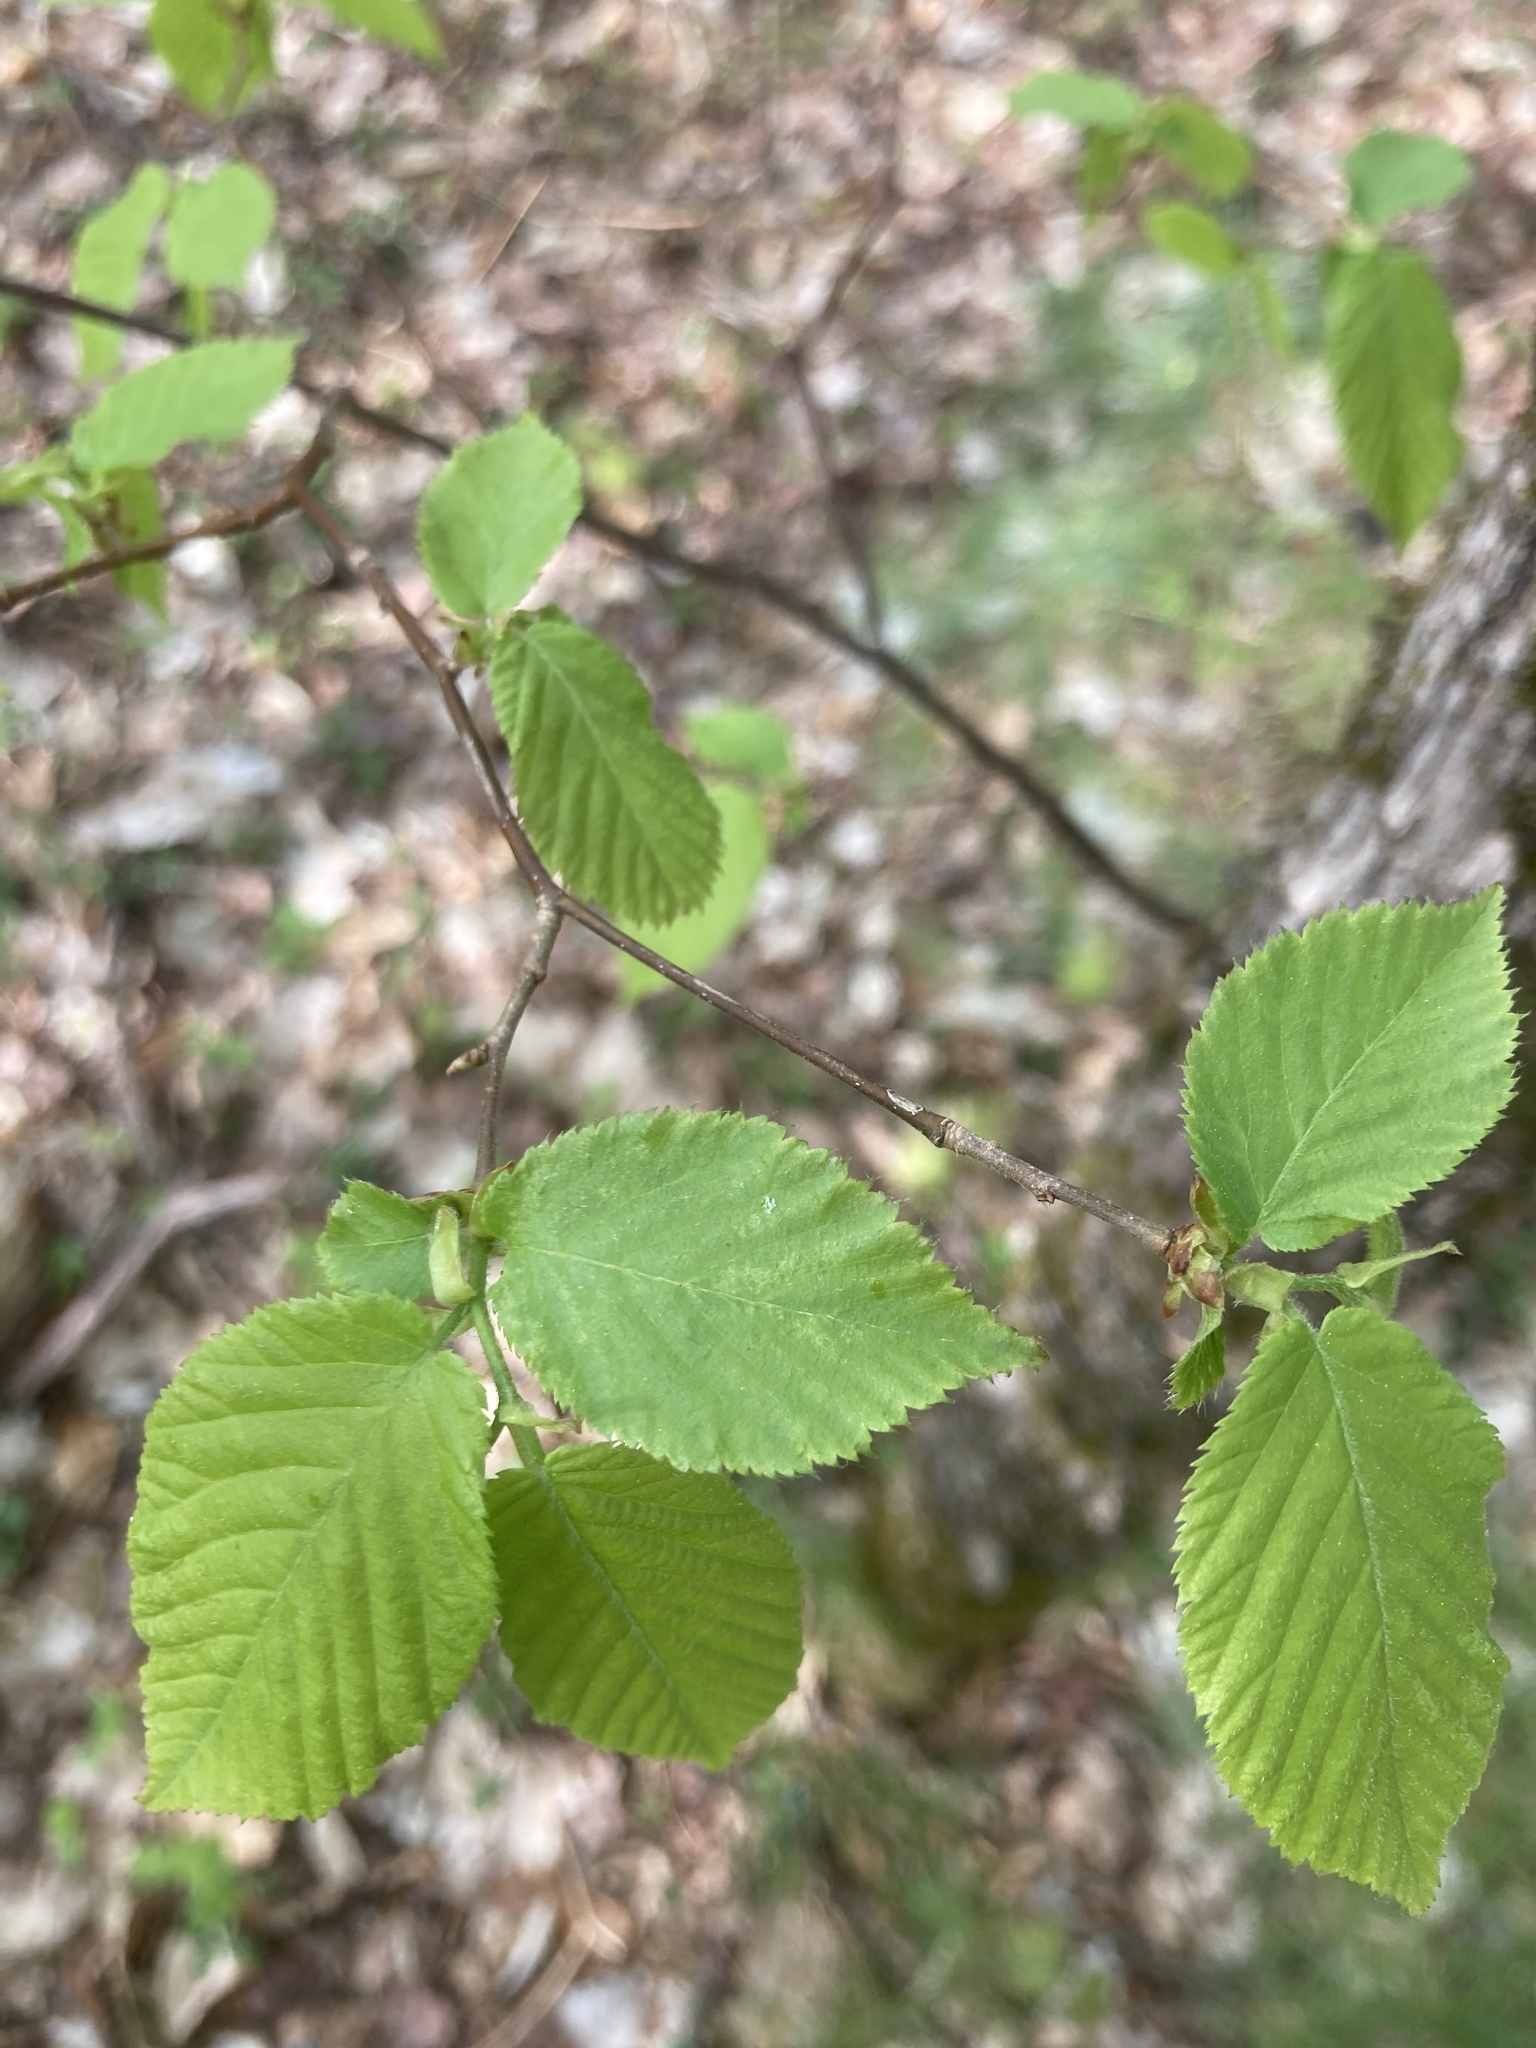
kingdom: Plantae
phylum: Tracheophyta
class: Magnoliopsida
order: Fagales
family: Betulaceae
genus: Ostrya
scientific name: Ostrya virginiana
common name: Ironwood
